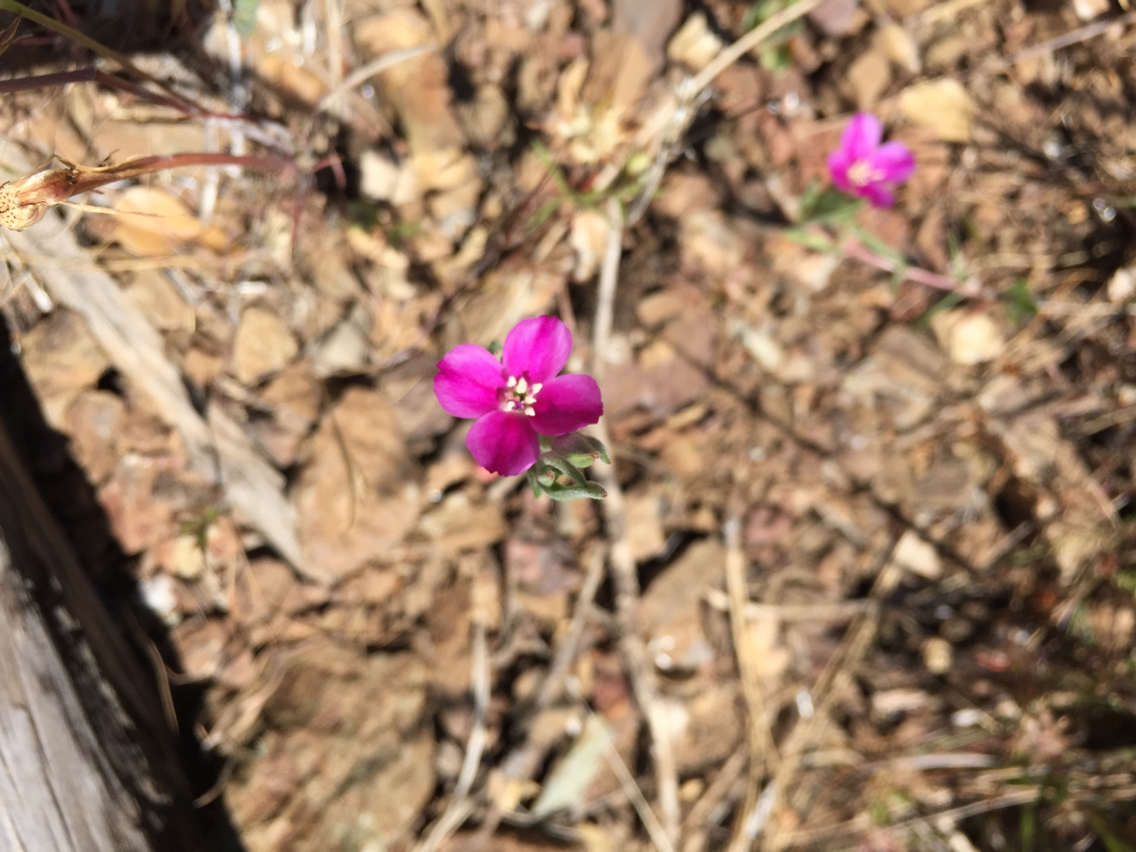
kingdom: Plantae
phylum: Tracheophyta
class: Magnoliopsida
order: Myrtales
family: Onagraceae
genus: Clarkia
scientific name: Clarkia purpurea
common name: Purple clarkia
